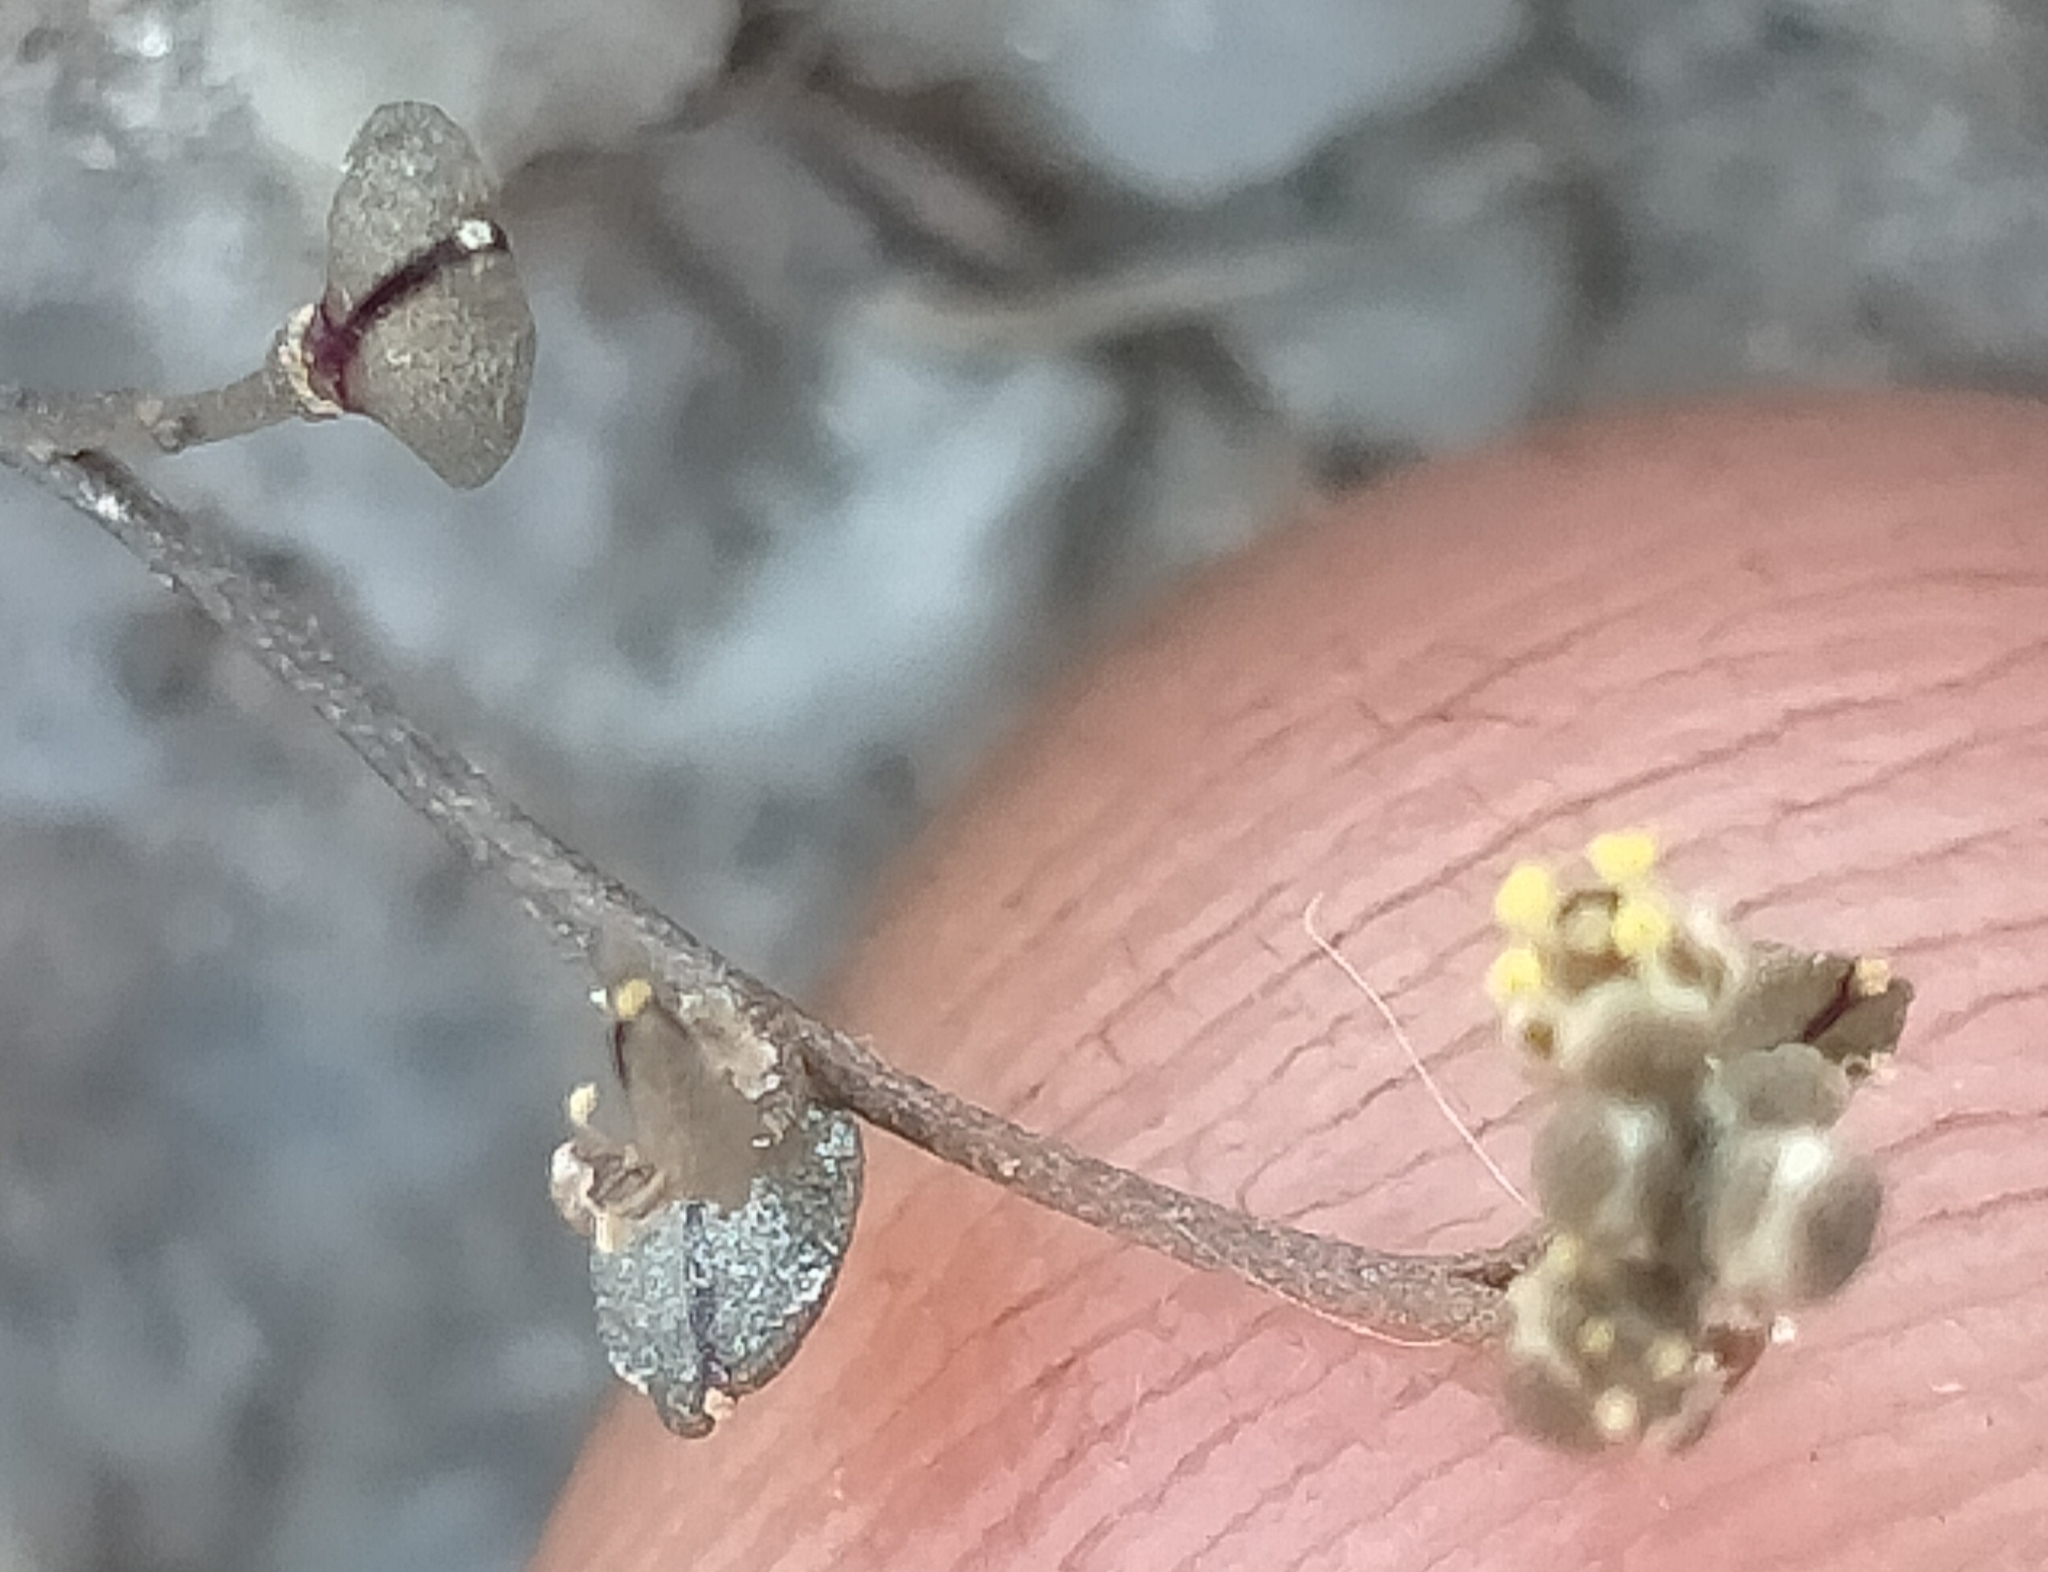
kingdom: Plantae
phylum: Tracheophyta
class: Magnoliopsida
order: Brassicales
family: Brassicaceae
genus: Lepidium
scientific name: Lepidium kirkii
